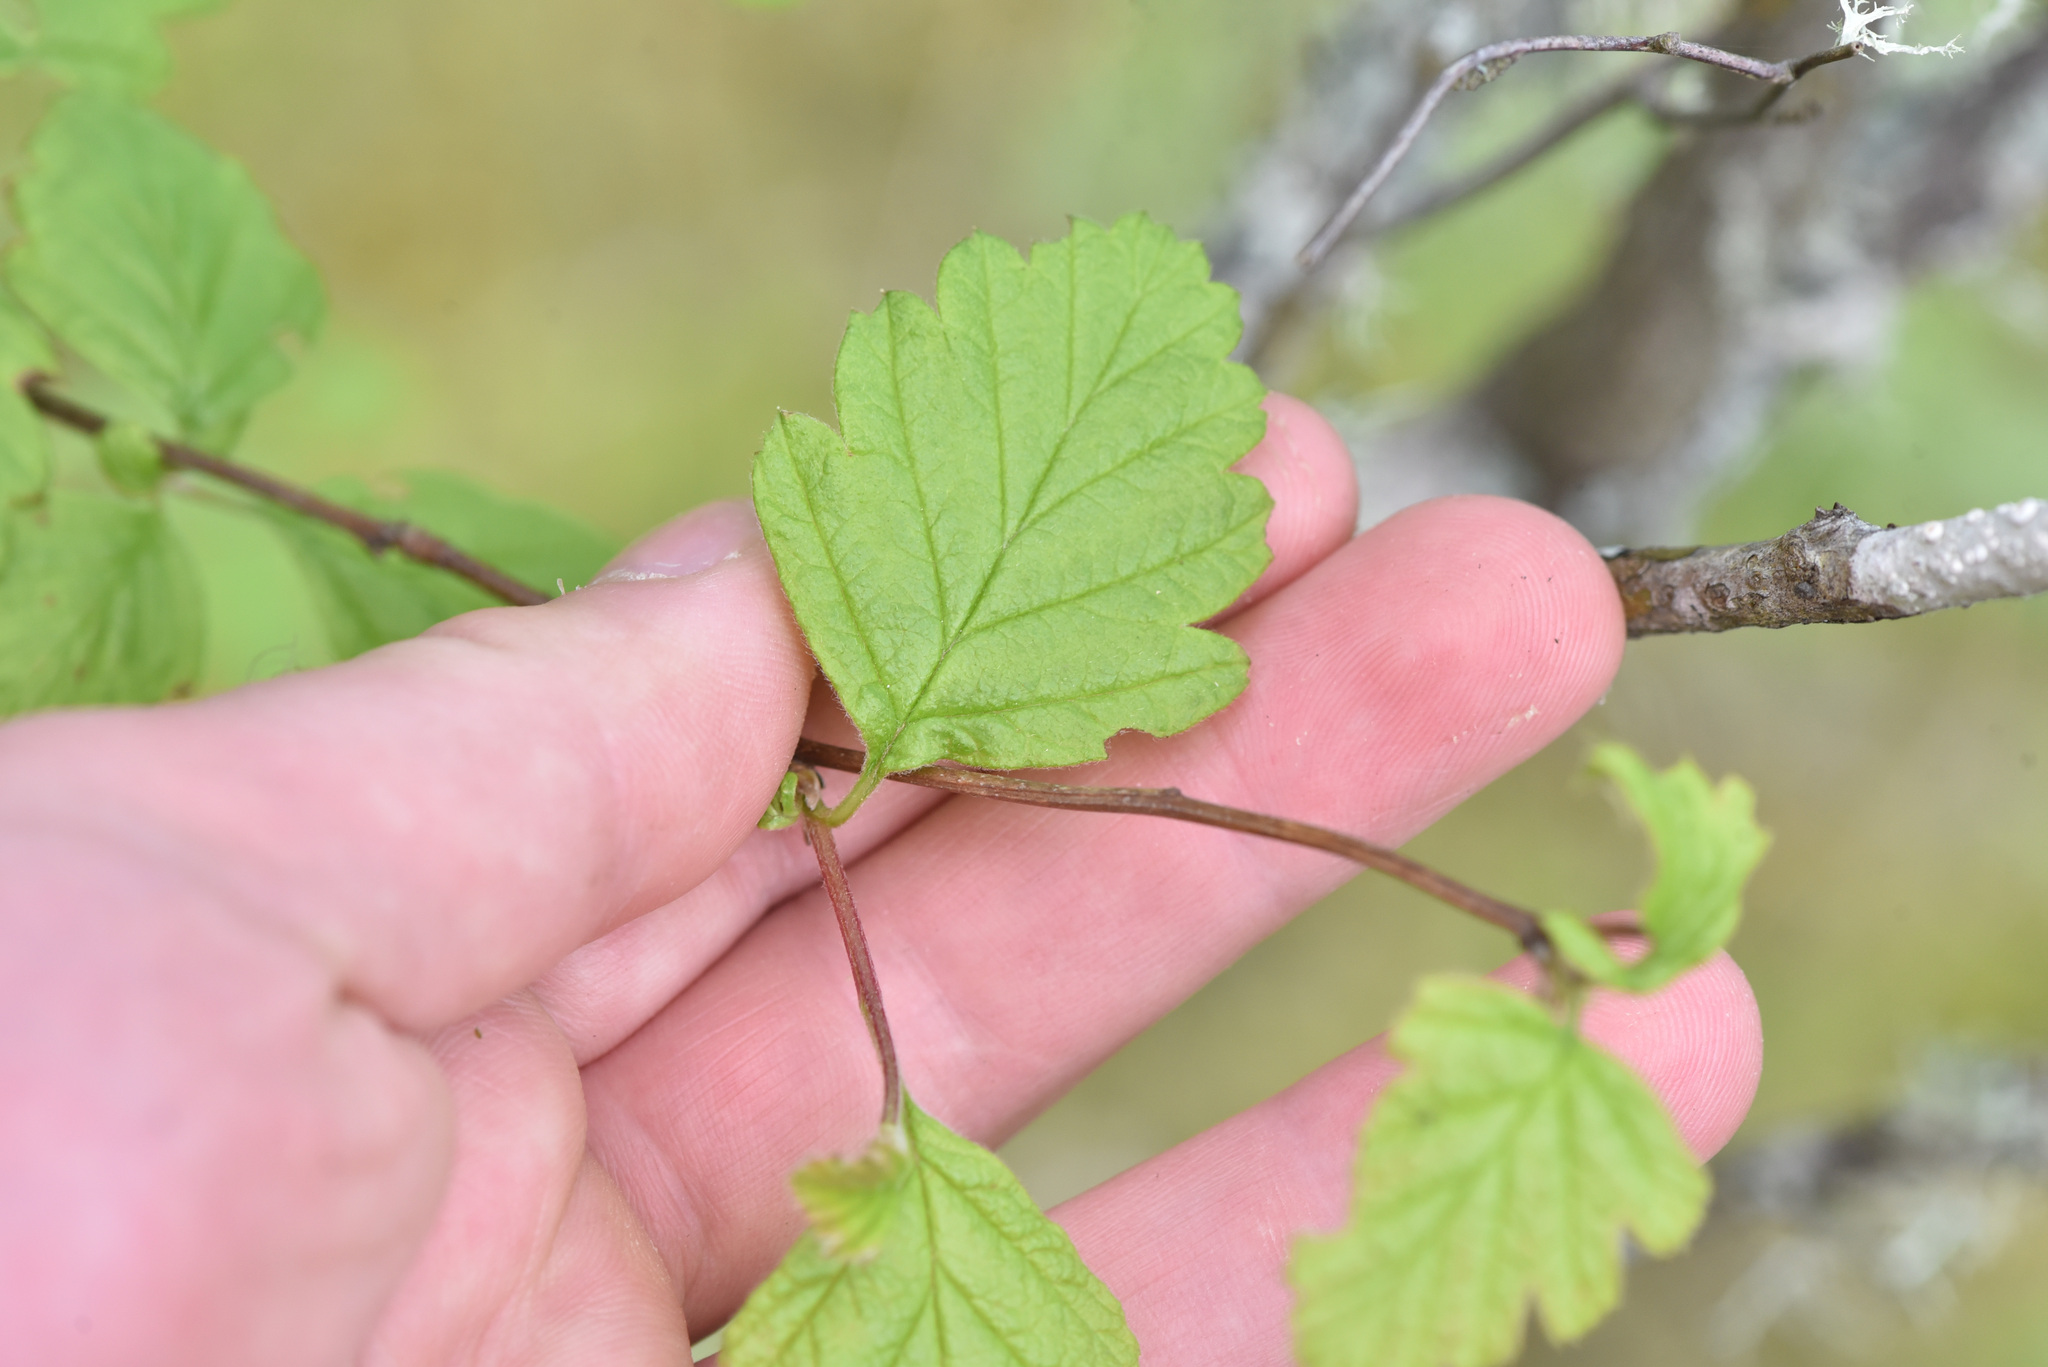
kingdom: Plantae
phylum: Tracheophyta
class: Magnoliopsida
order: Rosales
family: Rosaceae
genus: Holodiscus
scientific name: Holodiscus discolor
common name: Oceanspray
